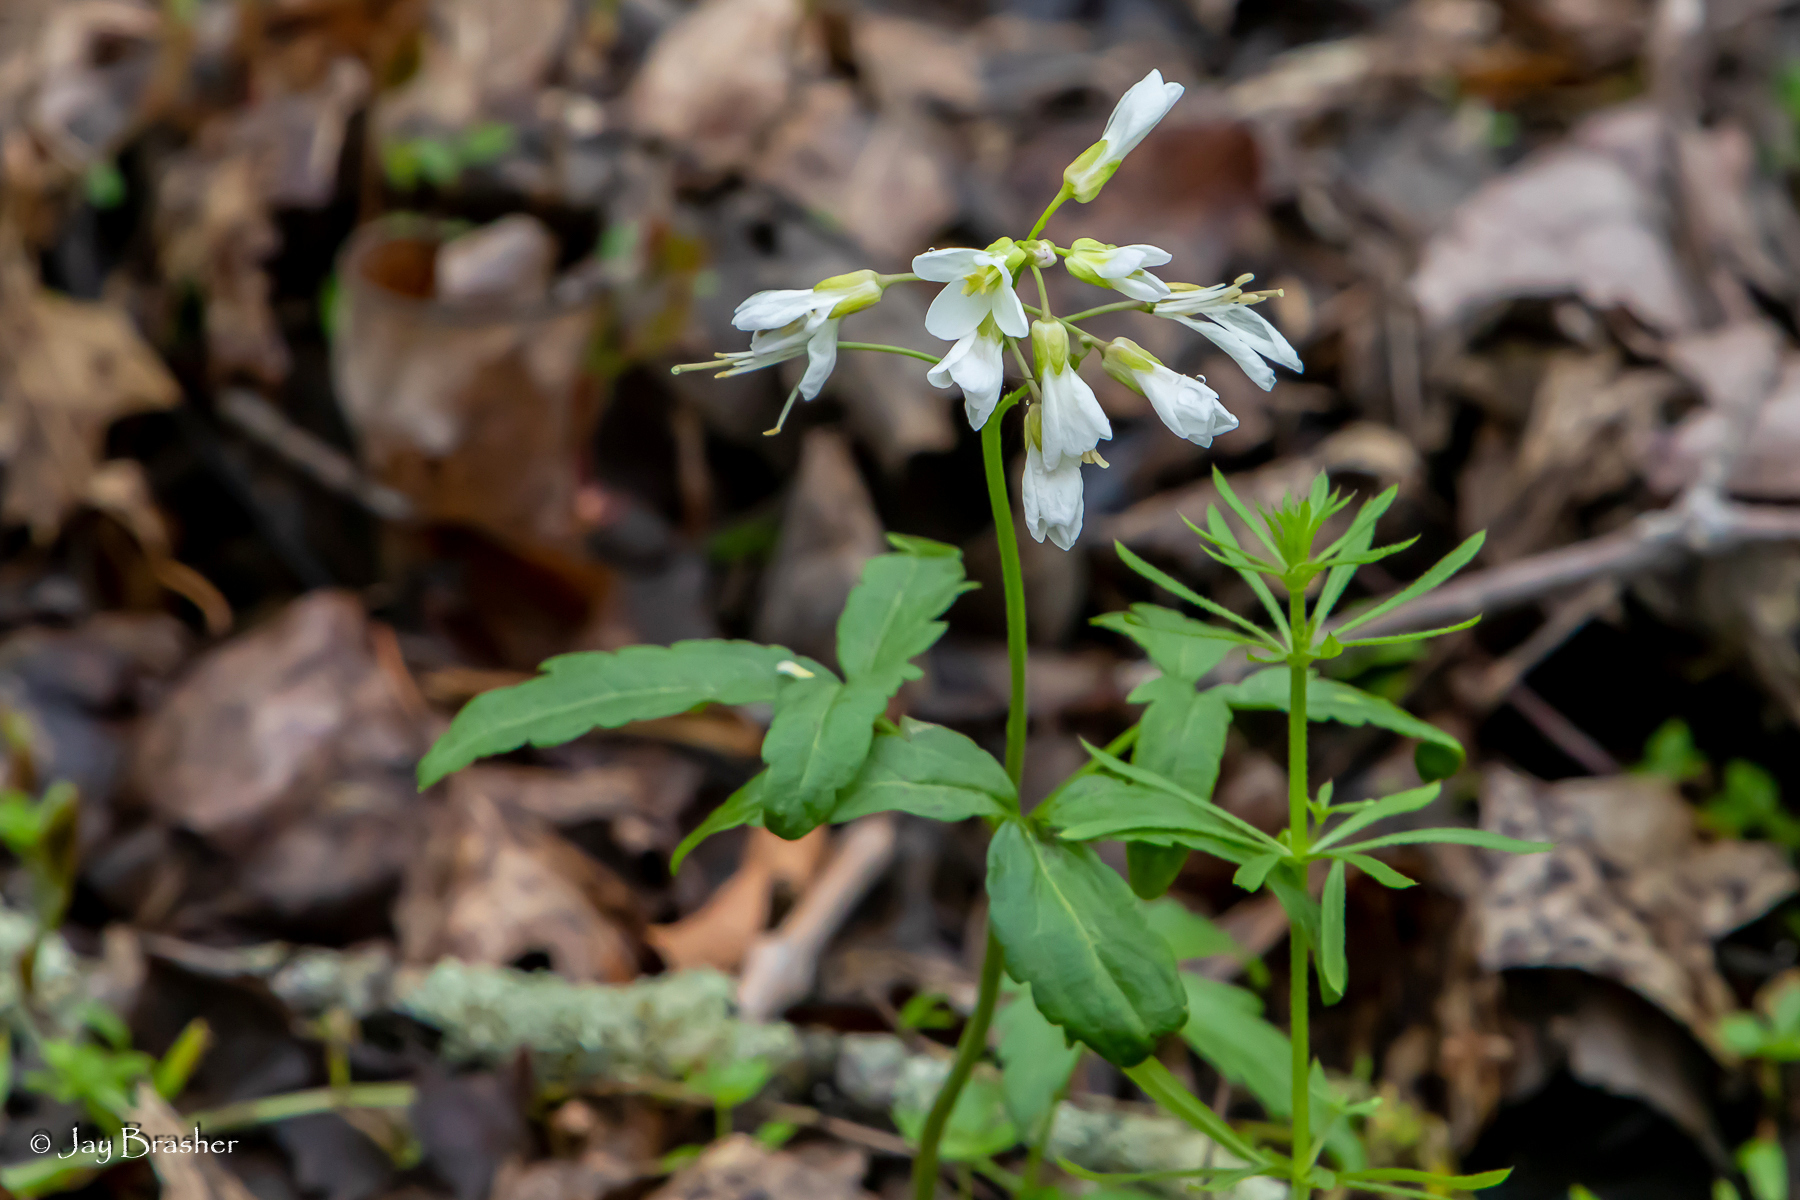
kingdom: Plantae
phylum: Tracheophyta
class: Magnoliopsida
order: Brassicales
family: Brassicaceae
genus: Cardamine
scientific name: Cardamine concatenata
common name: Cut-leaf toothcup
